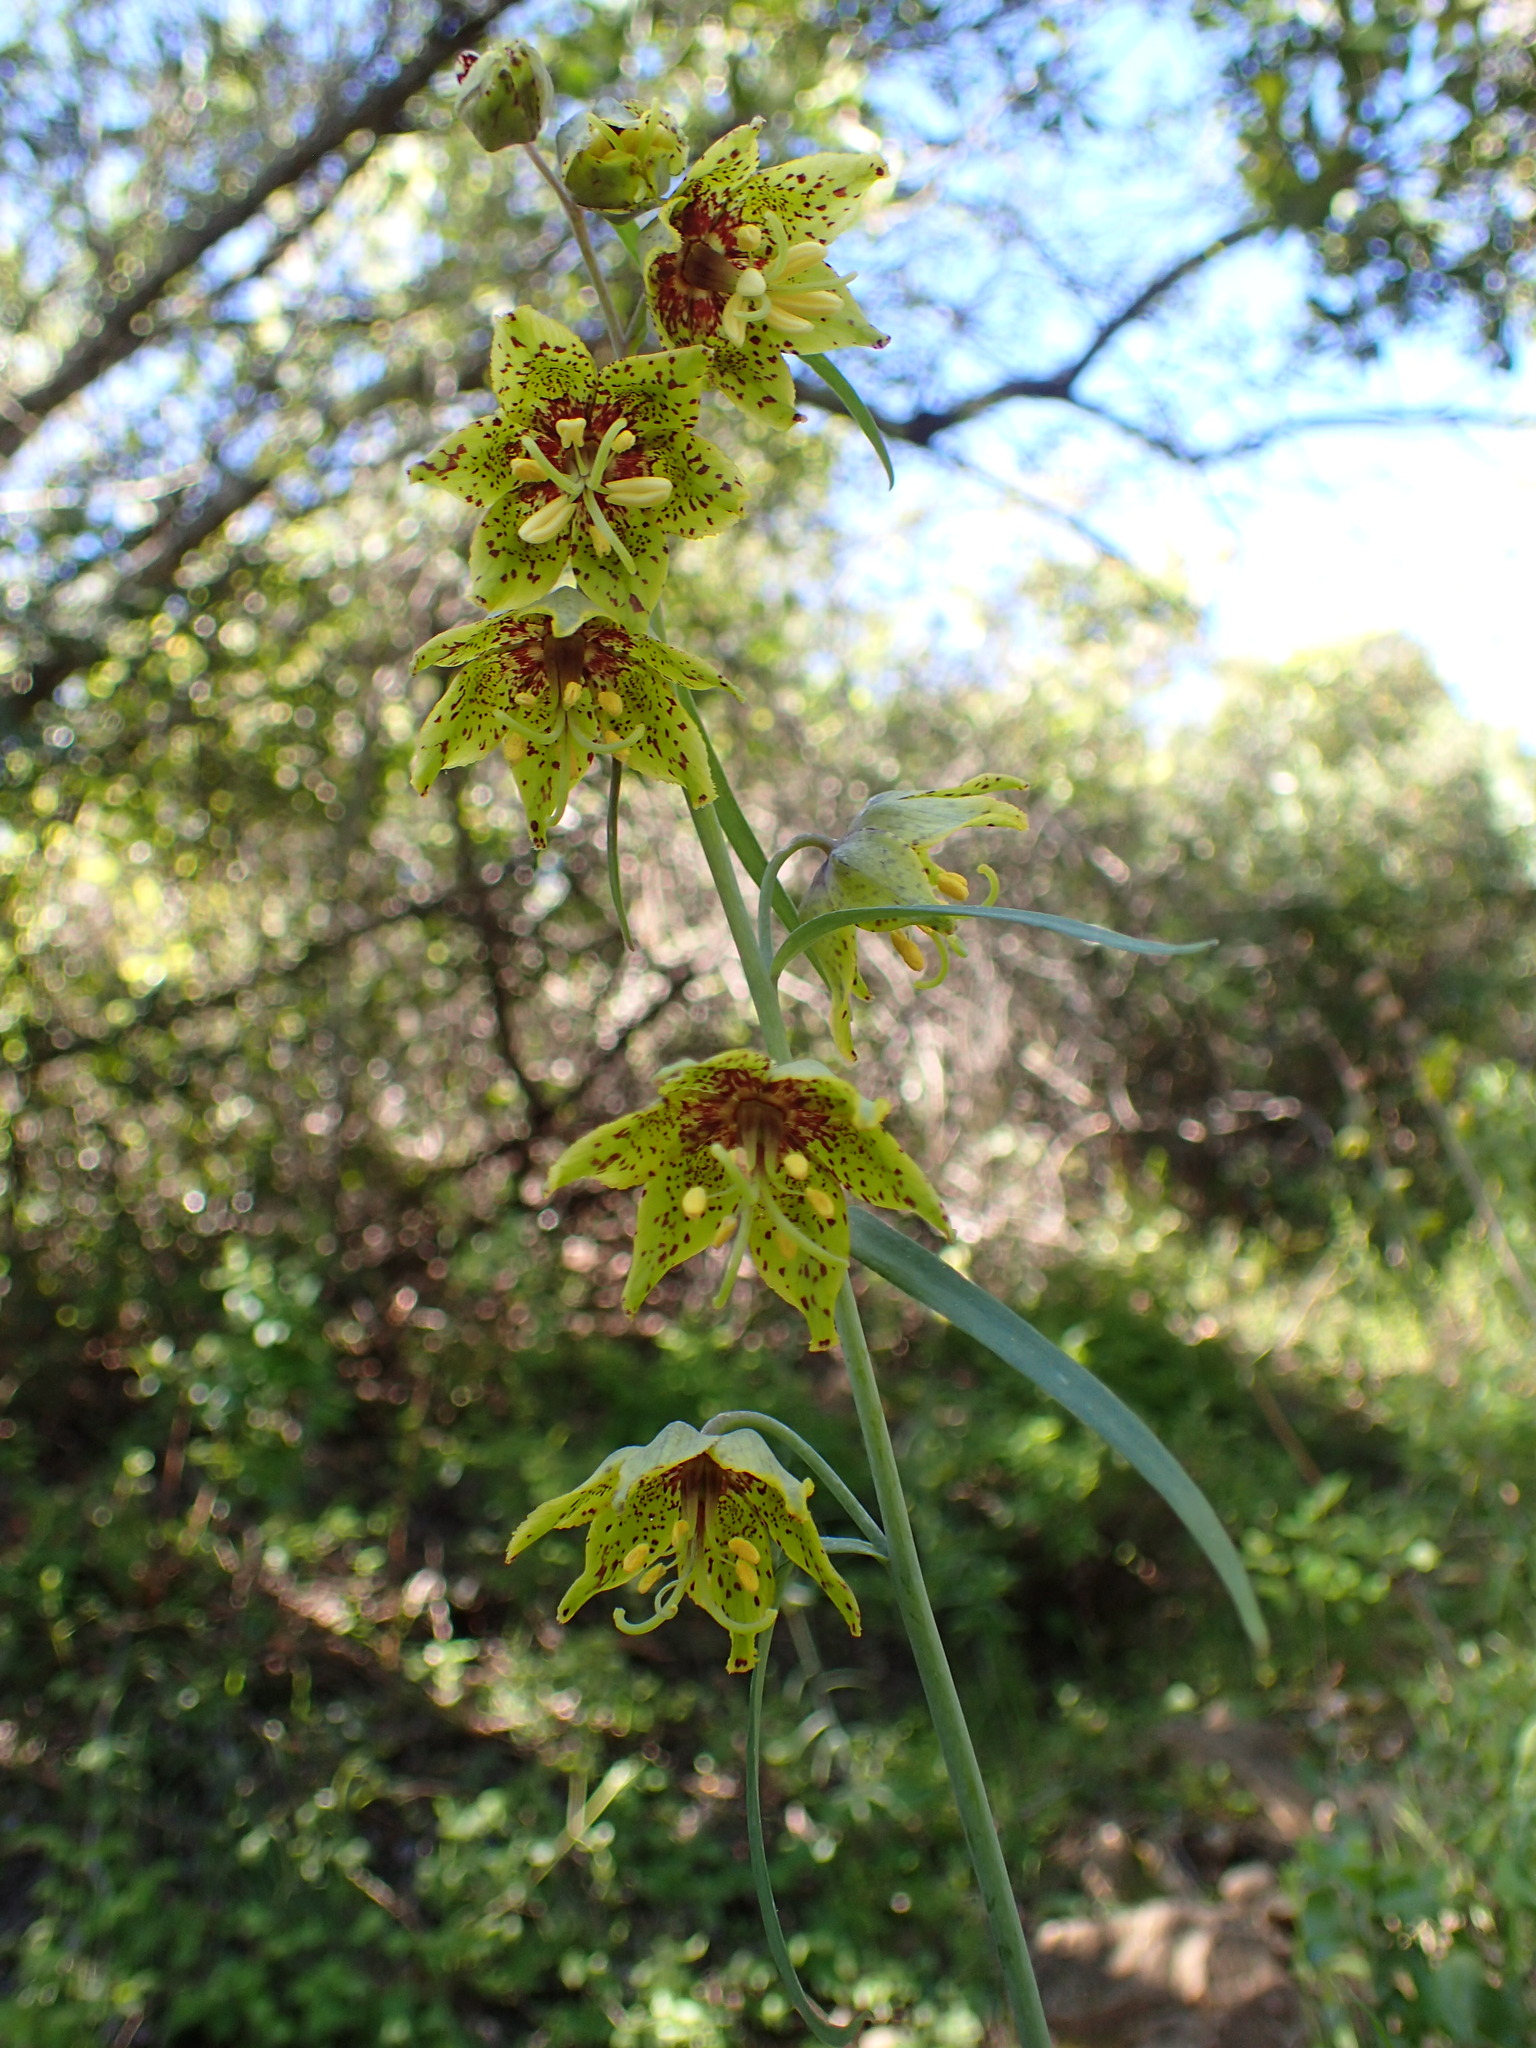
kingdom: Plantae
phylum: Tracheophyta
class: Liliopsida
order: Liliales
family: Liliaceae
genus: Fritillaria
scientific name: Fritillaria ojaiensis
